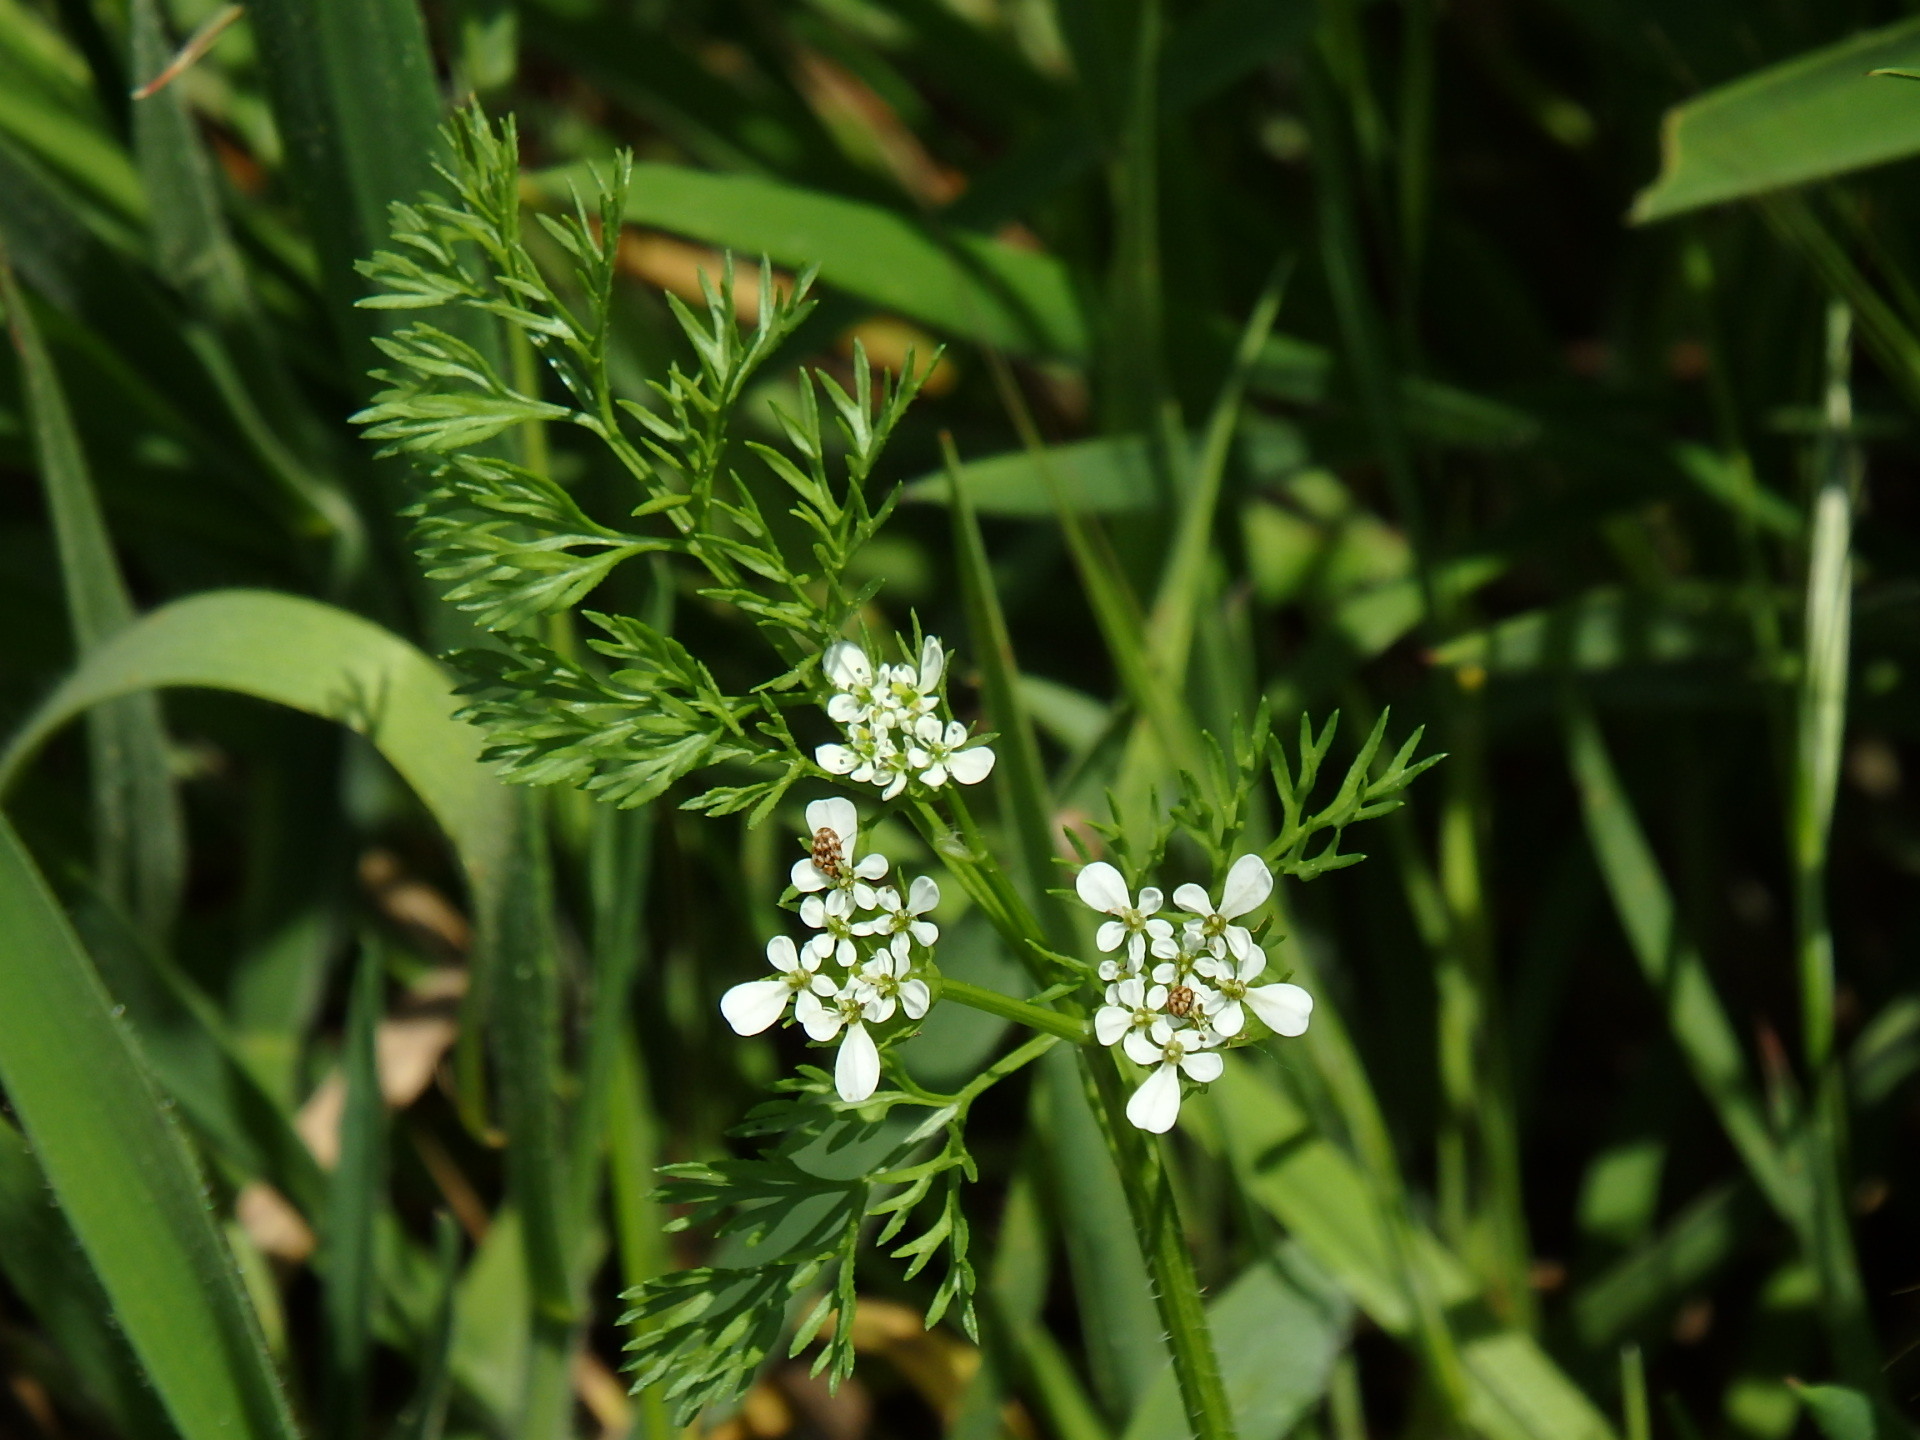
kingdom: Plantae
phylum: Tracheophyta
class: Magnoliopsida
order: Apiales
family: Apiaceae
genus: Scandix
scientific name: Scandix pecten-veneris
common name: Shepherd's-needle
